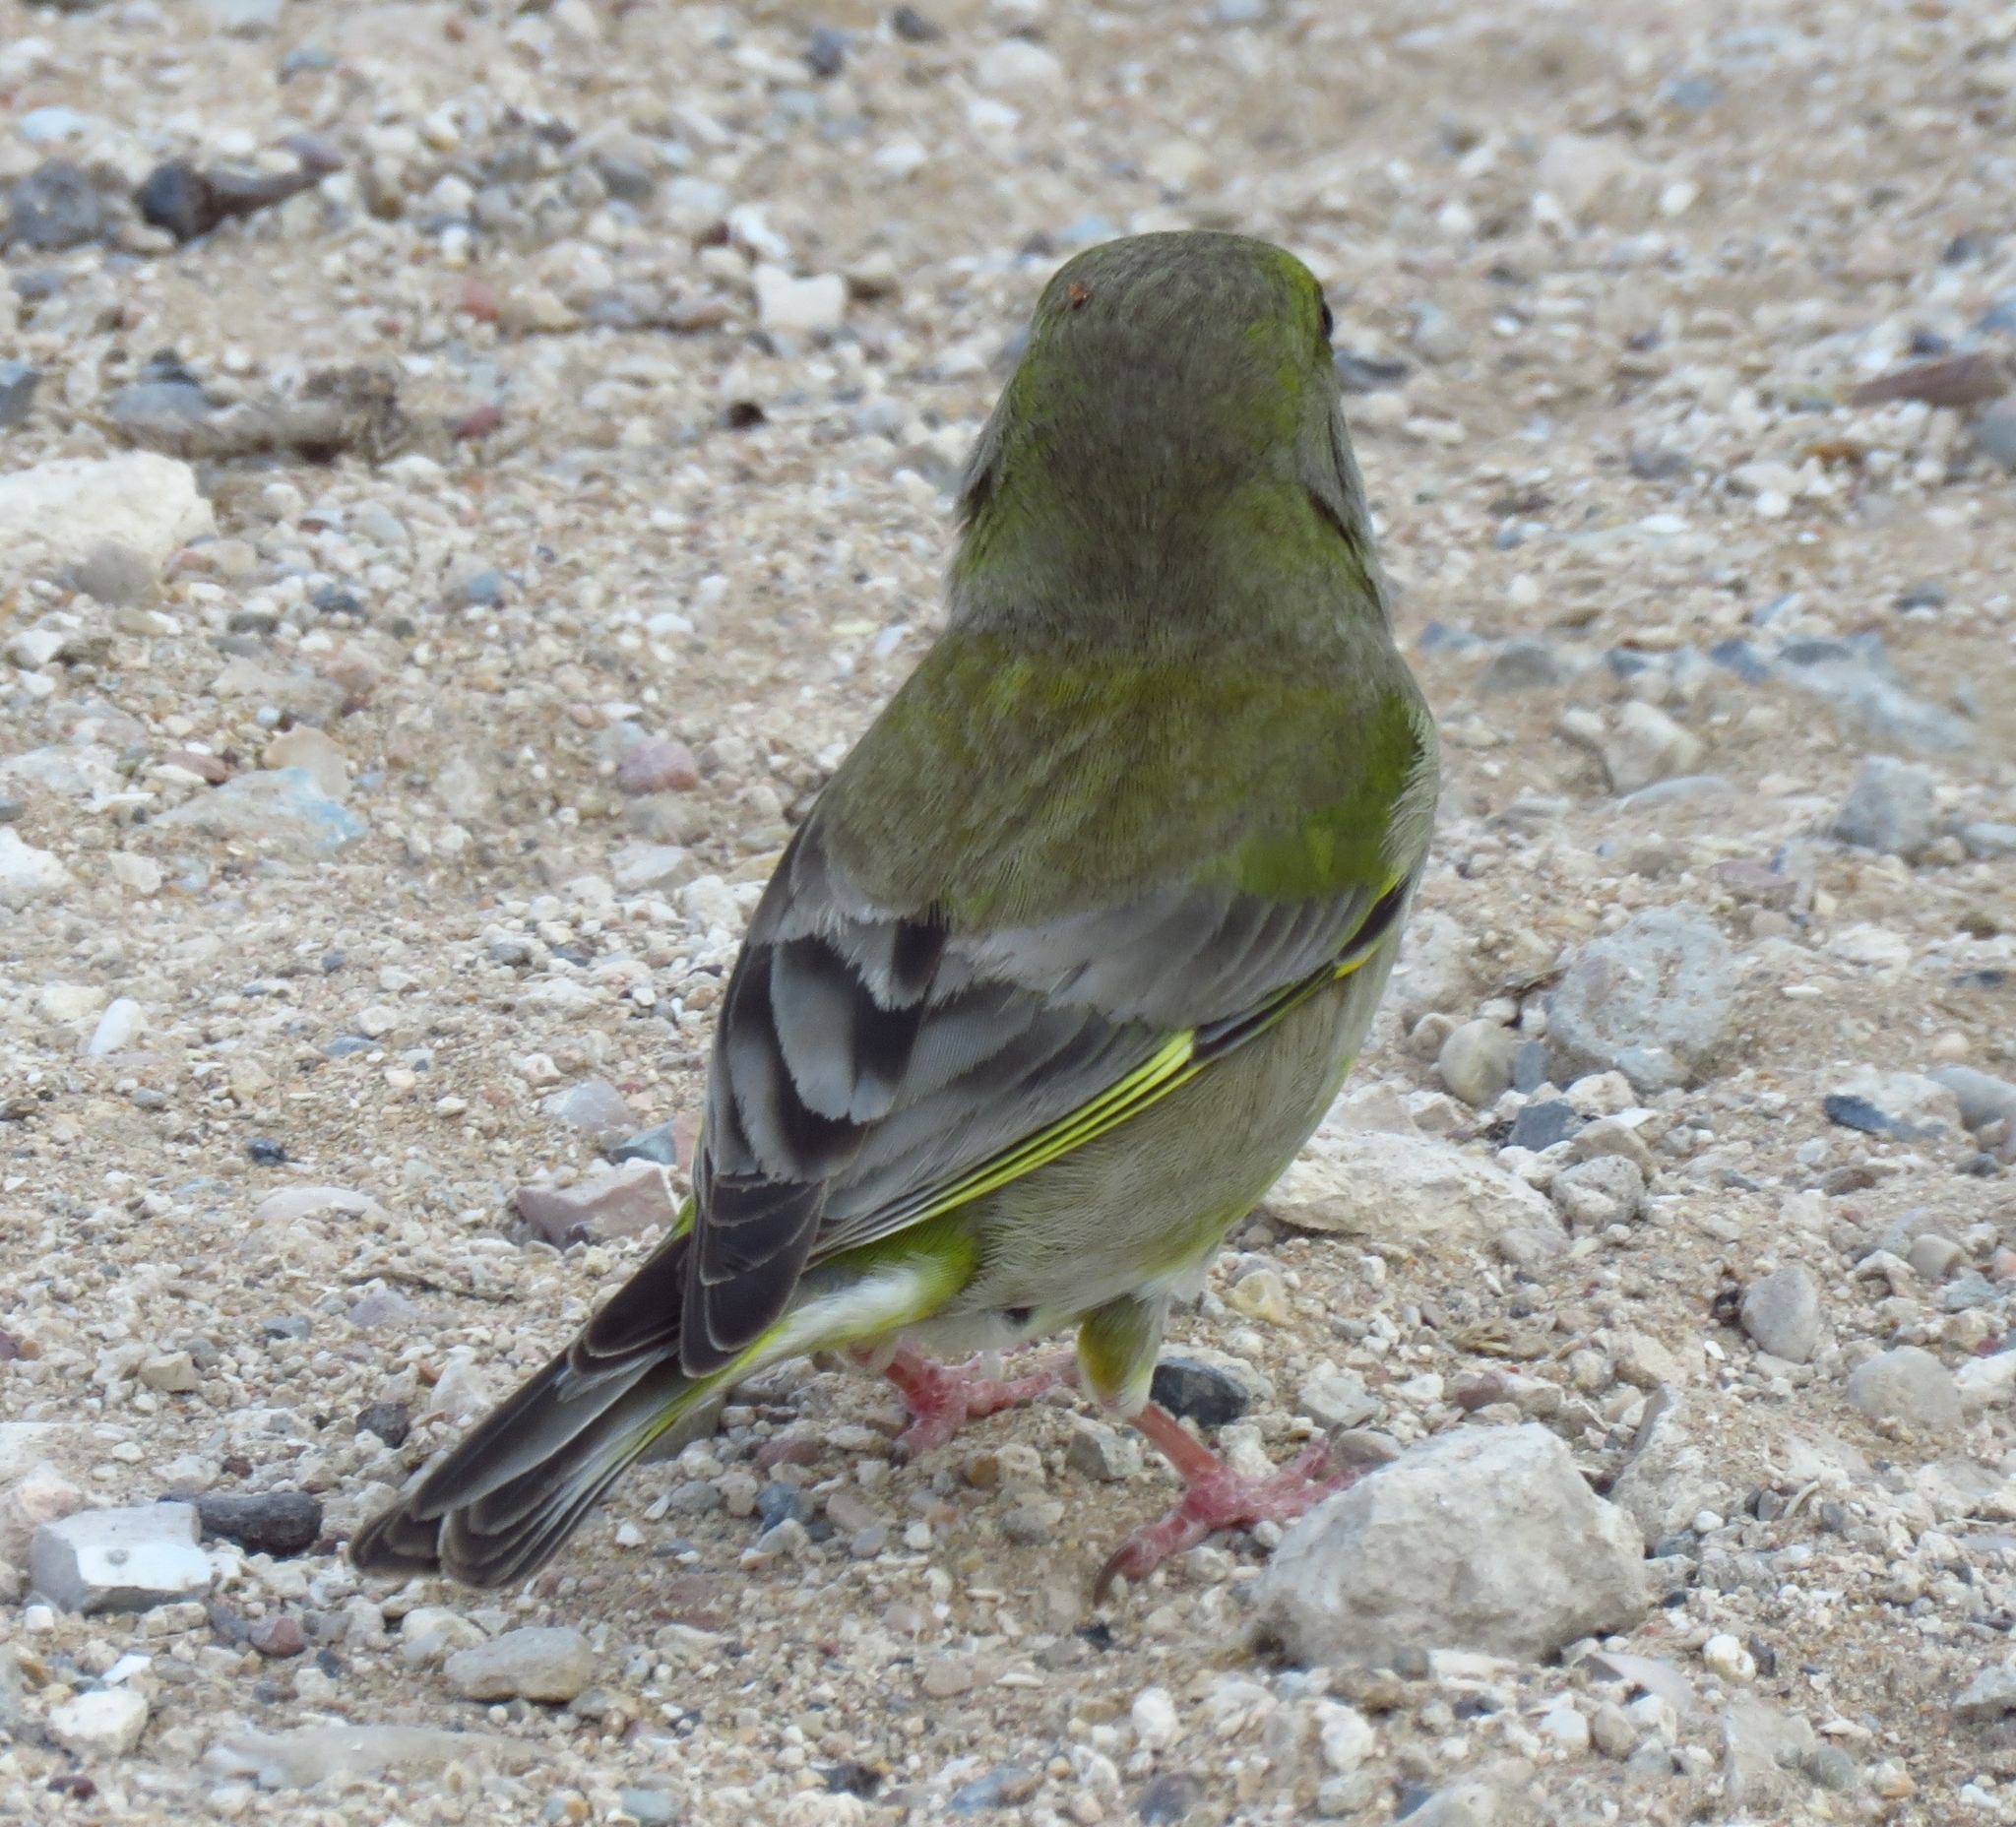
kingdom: Plantae
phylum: Tracheophyta
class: Liliopsida
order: Poales
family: Poaceae
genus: Chloris
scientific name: Chloris chloris
